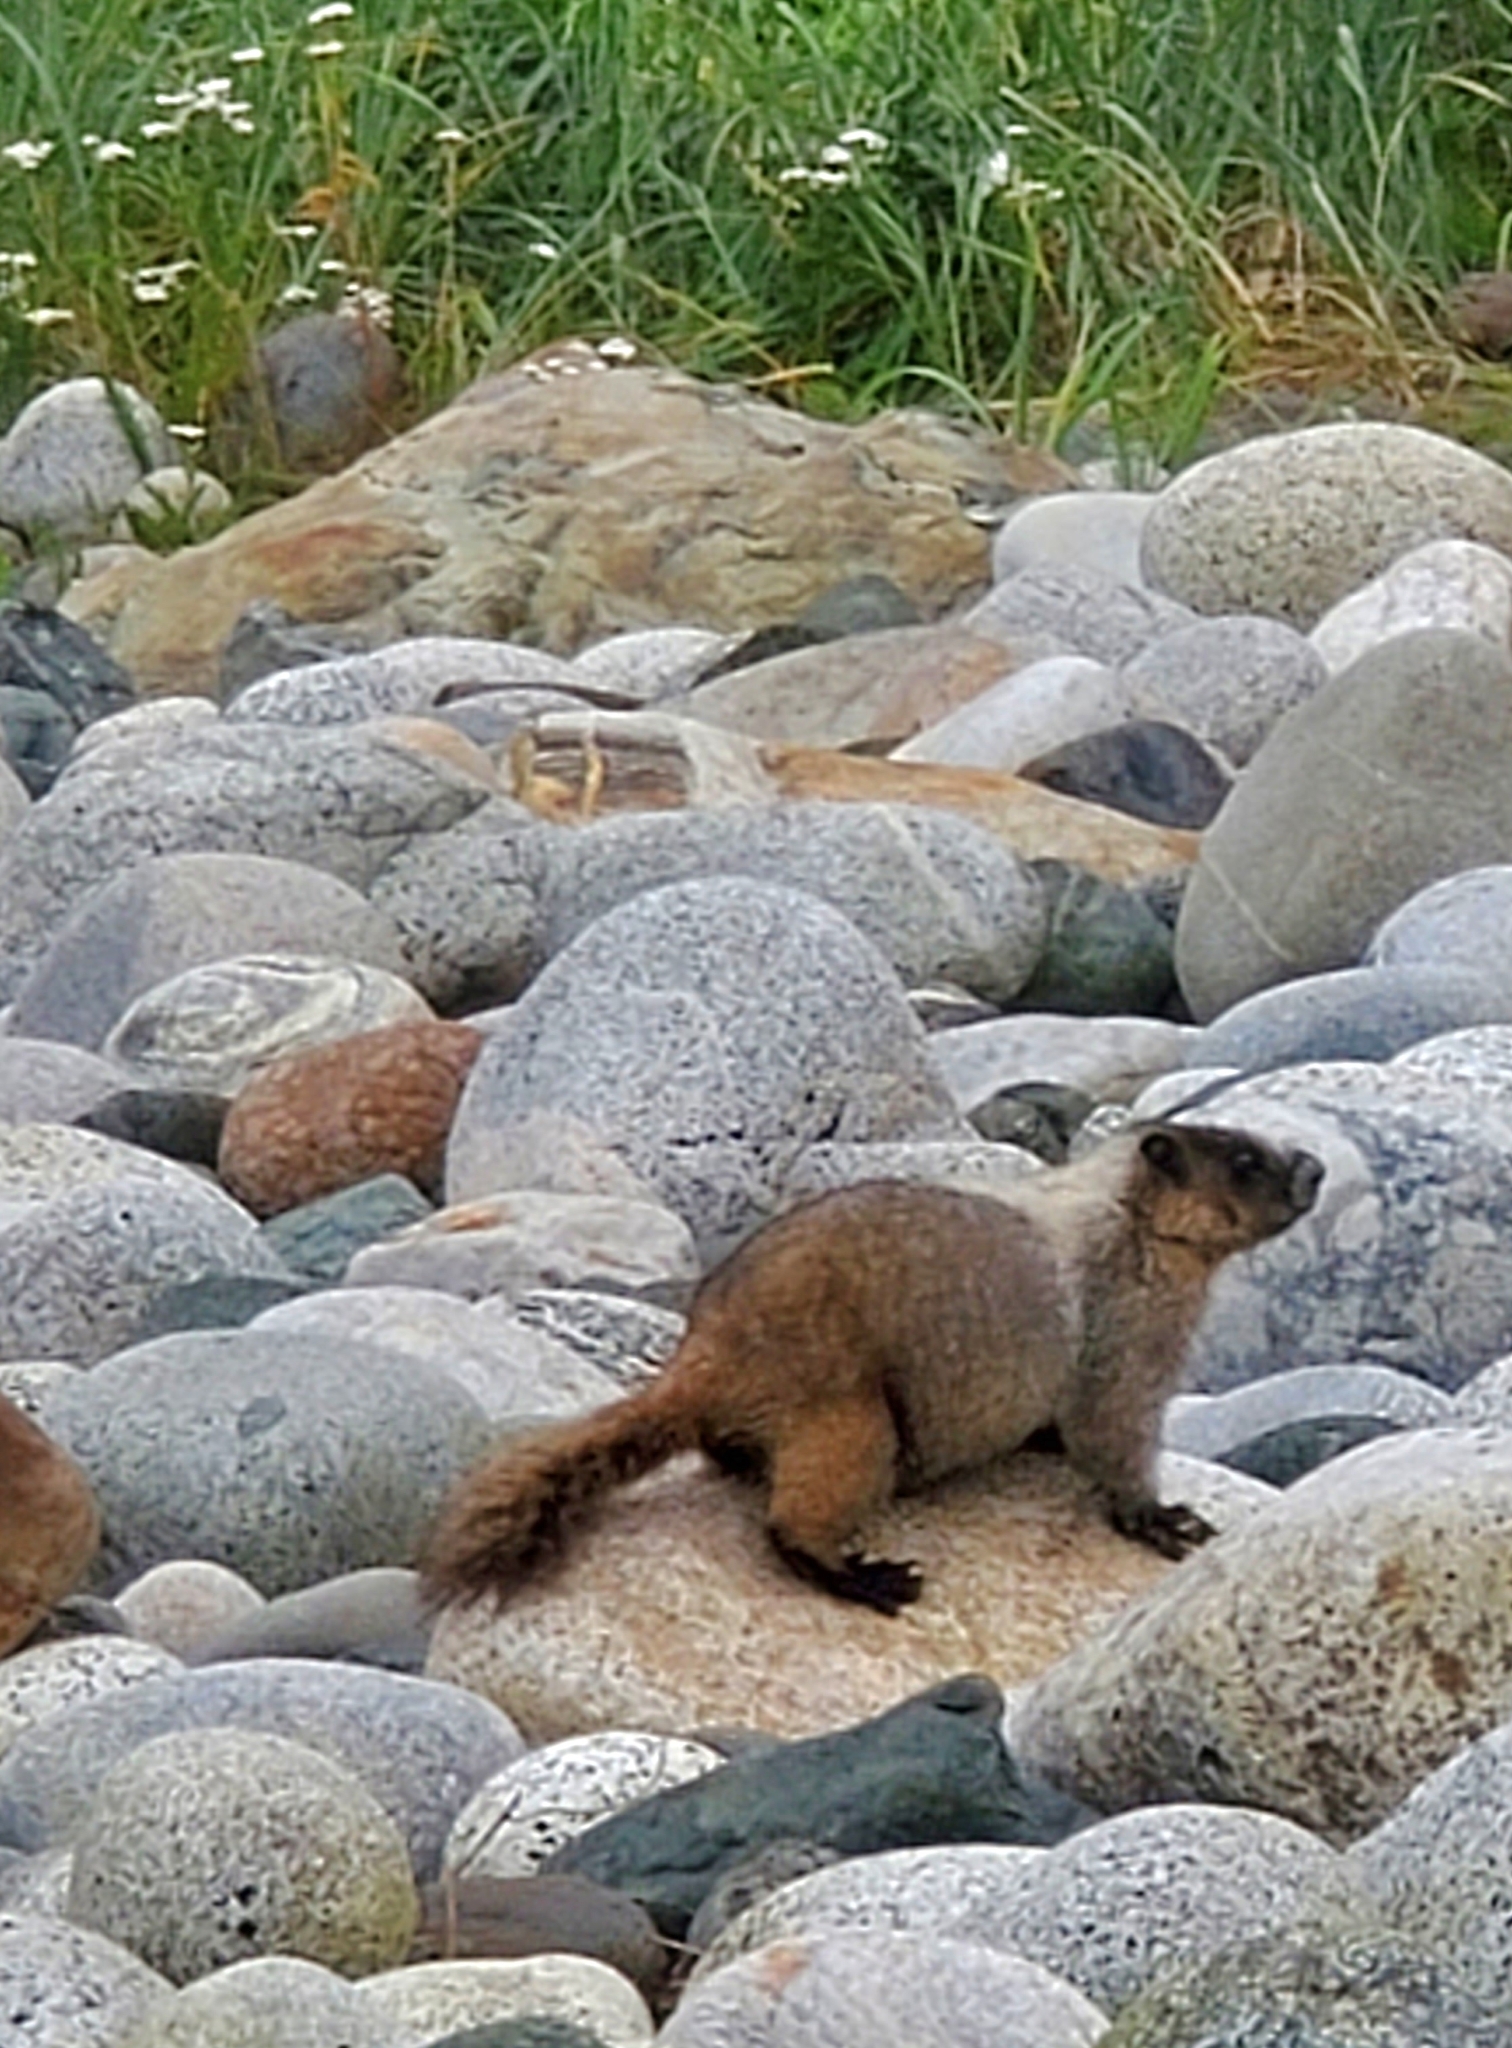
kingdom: Animalia
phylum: Chordata
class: Mammalia
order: Rodentia
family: Sciuridae
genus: Marmota
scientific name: Marmota caligata
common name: Hoary marmot
